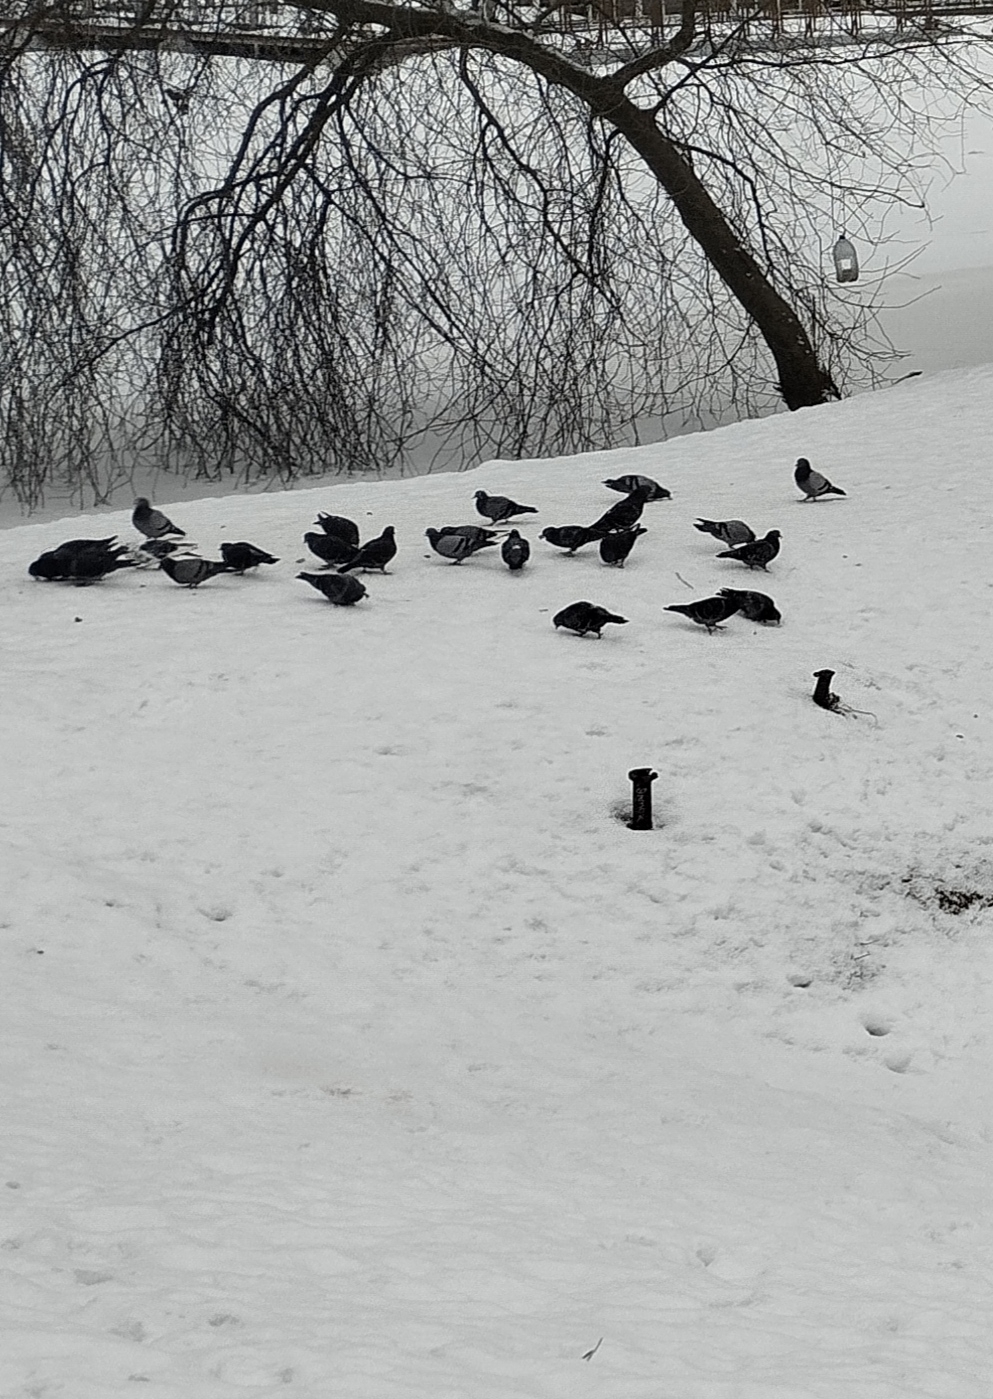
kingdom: Animalia
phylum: Chordata
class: Aves
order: Columbiformes
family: Columbidae
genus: Columba
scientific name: Columba livia
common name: Rock pigeon
